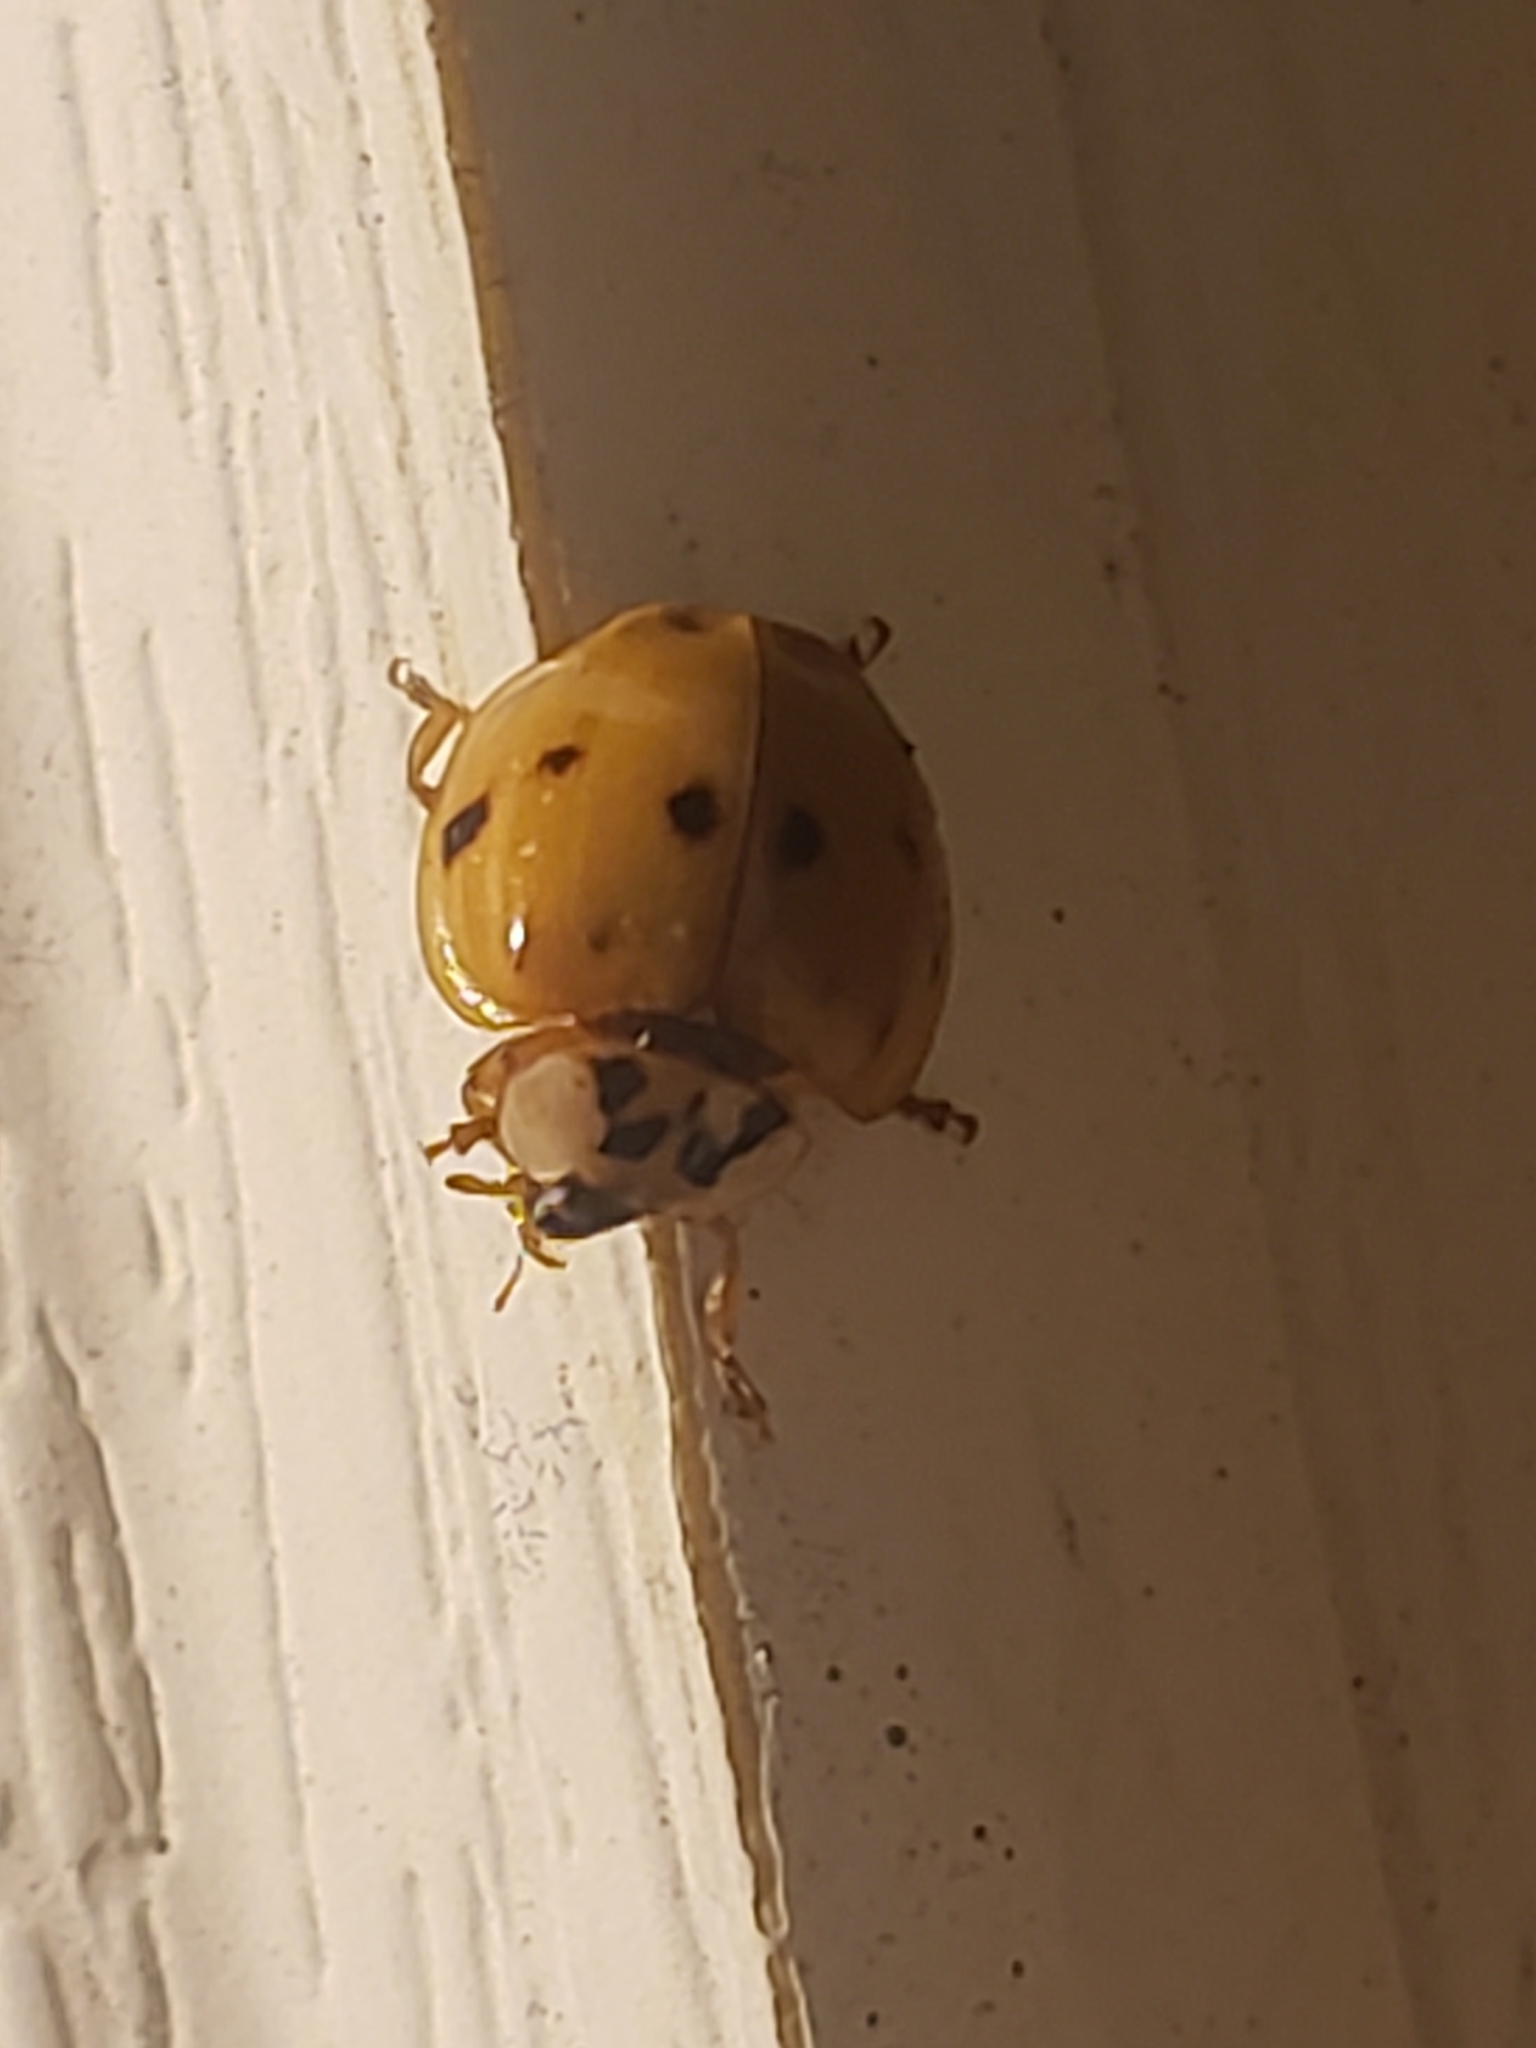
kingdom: Animalia
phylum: Arthropoda
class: Insecta
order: Coleoptera
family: Coccinellidae
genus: Harmonia
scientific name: Harmonia axyridis
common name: Harlequin ladybird
